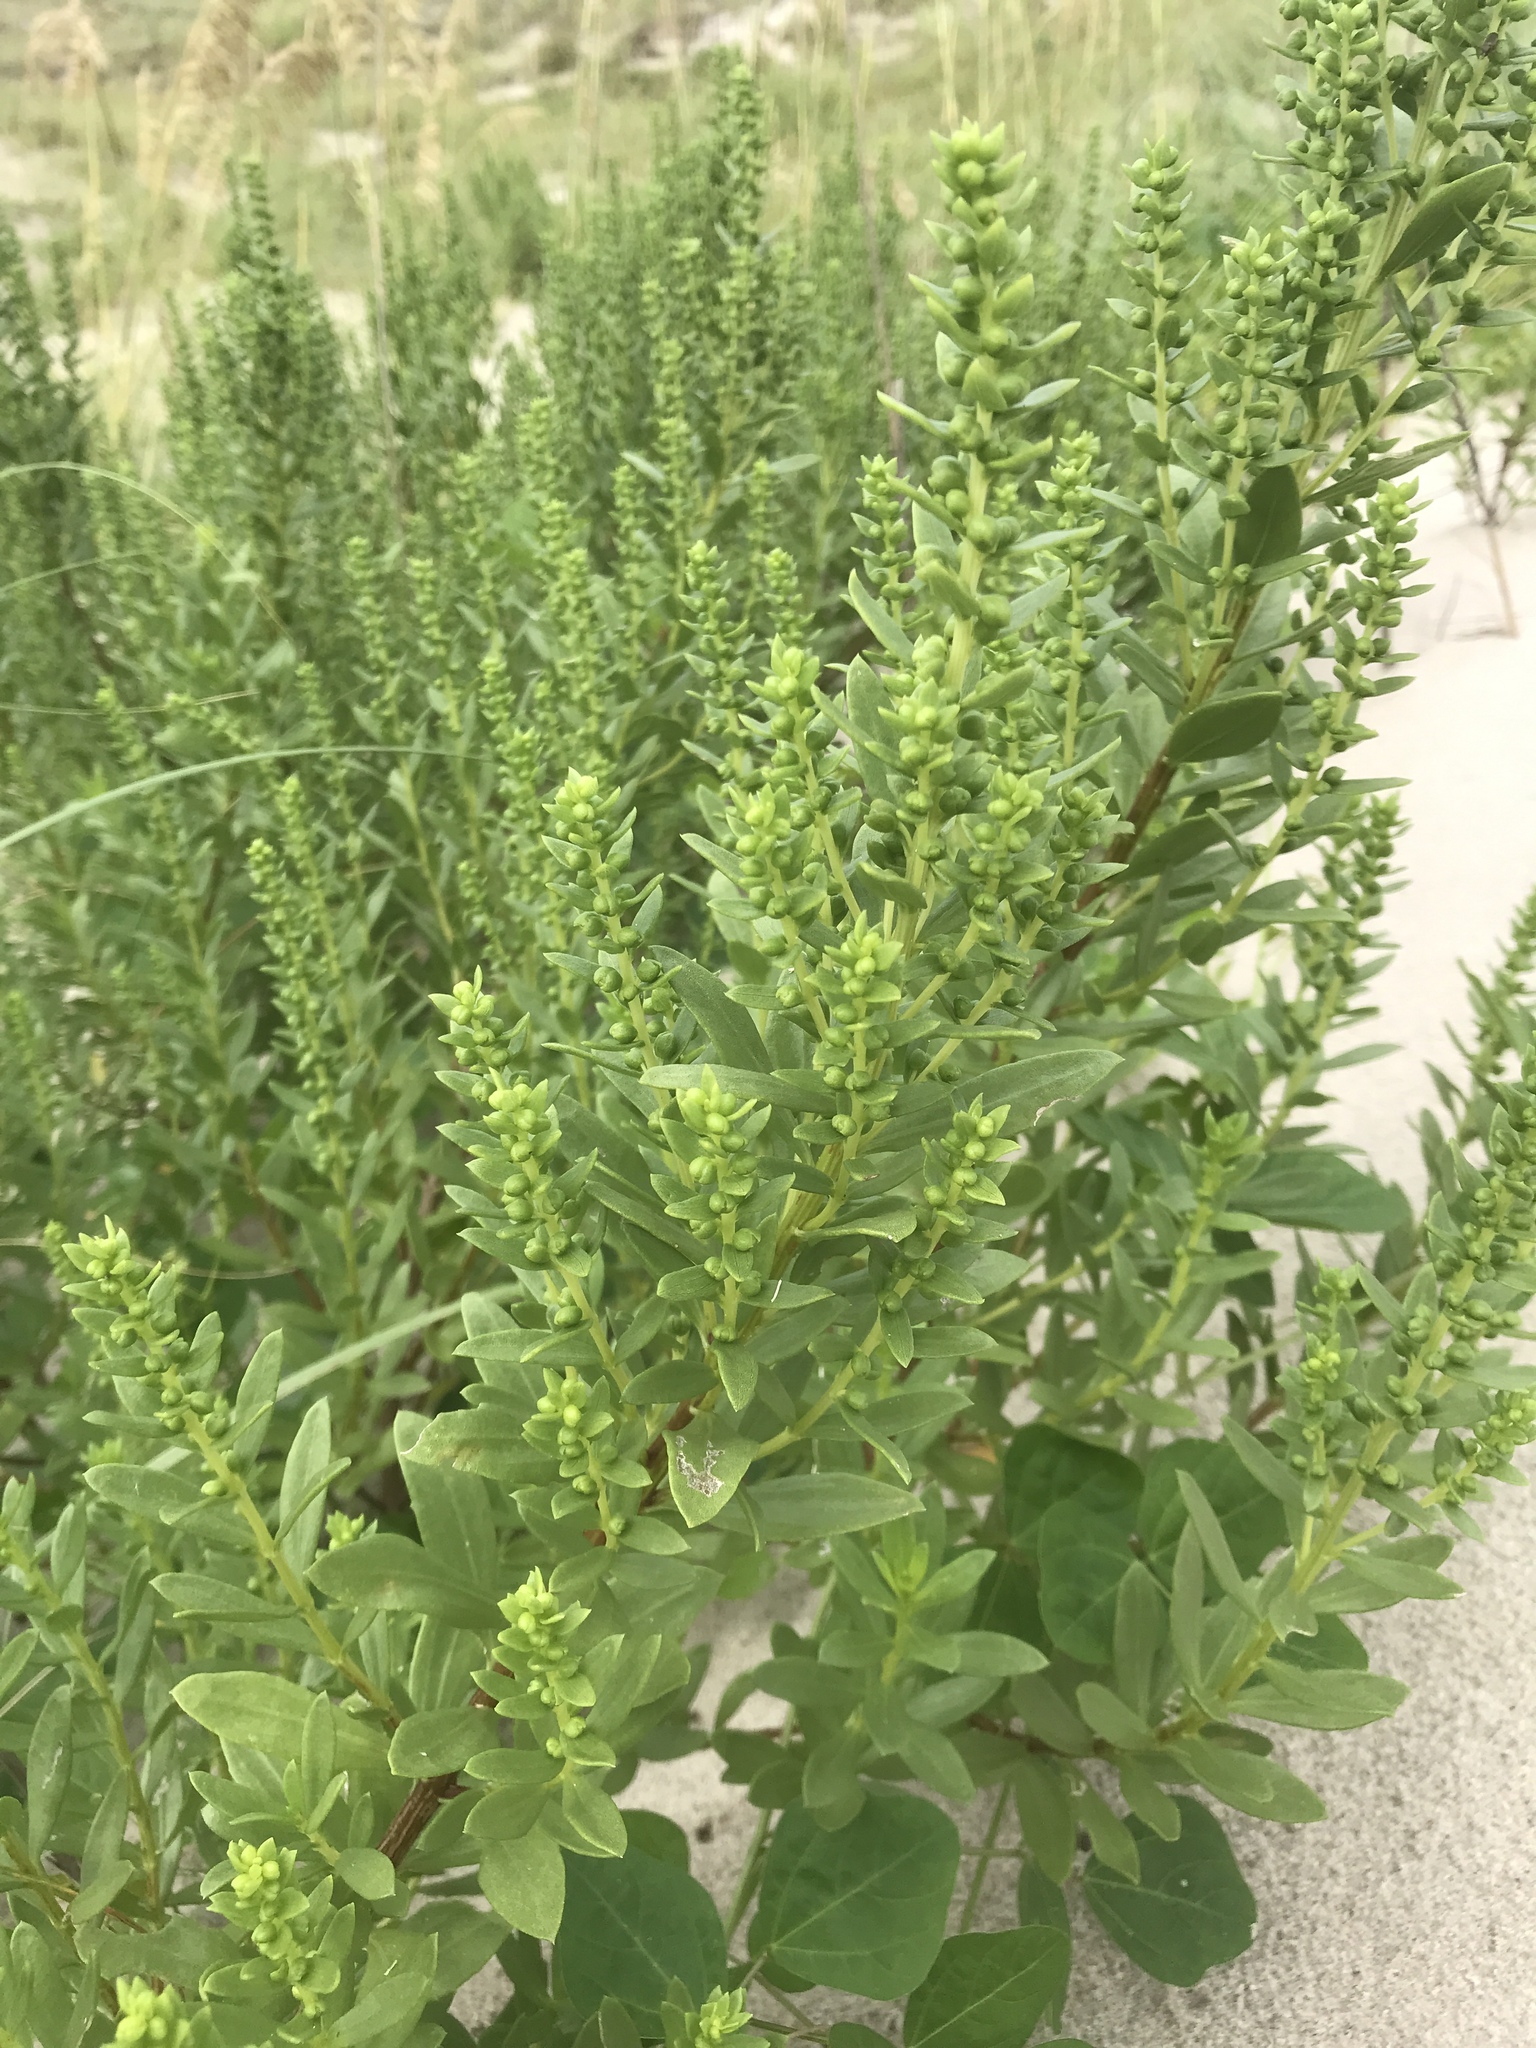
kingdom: Plantae
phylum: Tracheophyta
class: Magnoliopsida
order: Asterales
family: Asteraceae
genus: Iva
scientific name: Iva imbricata
